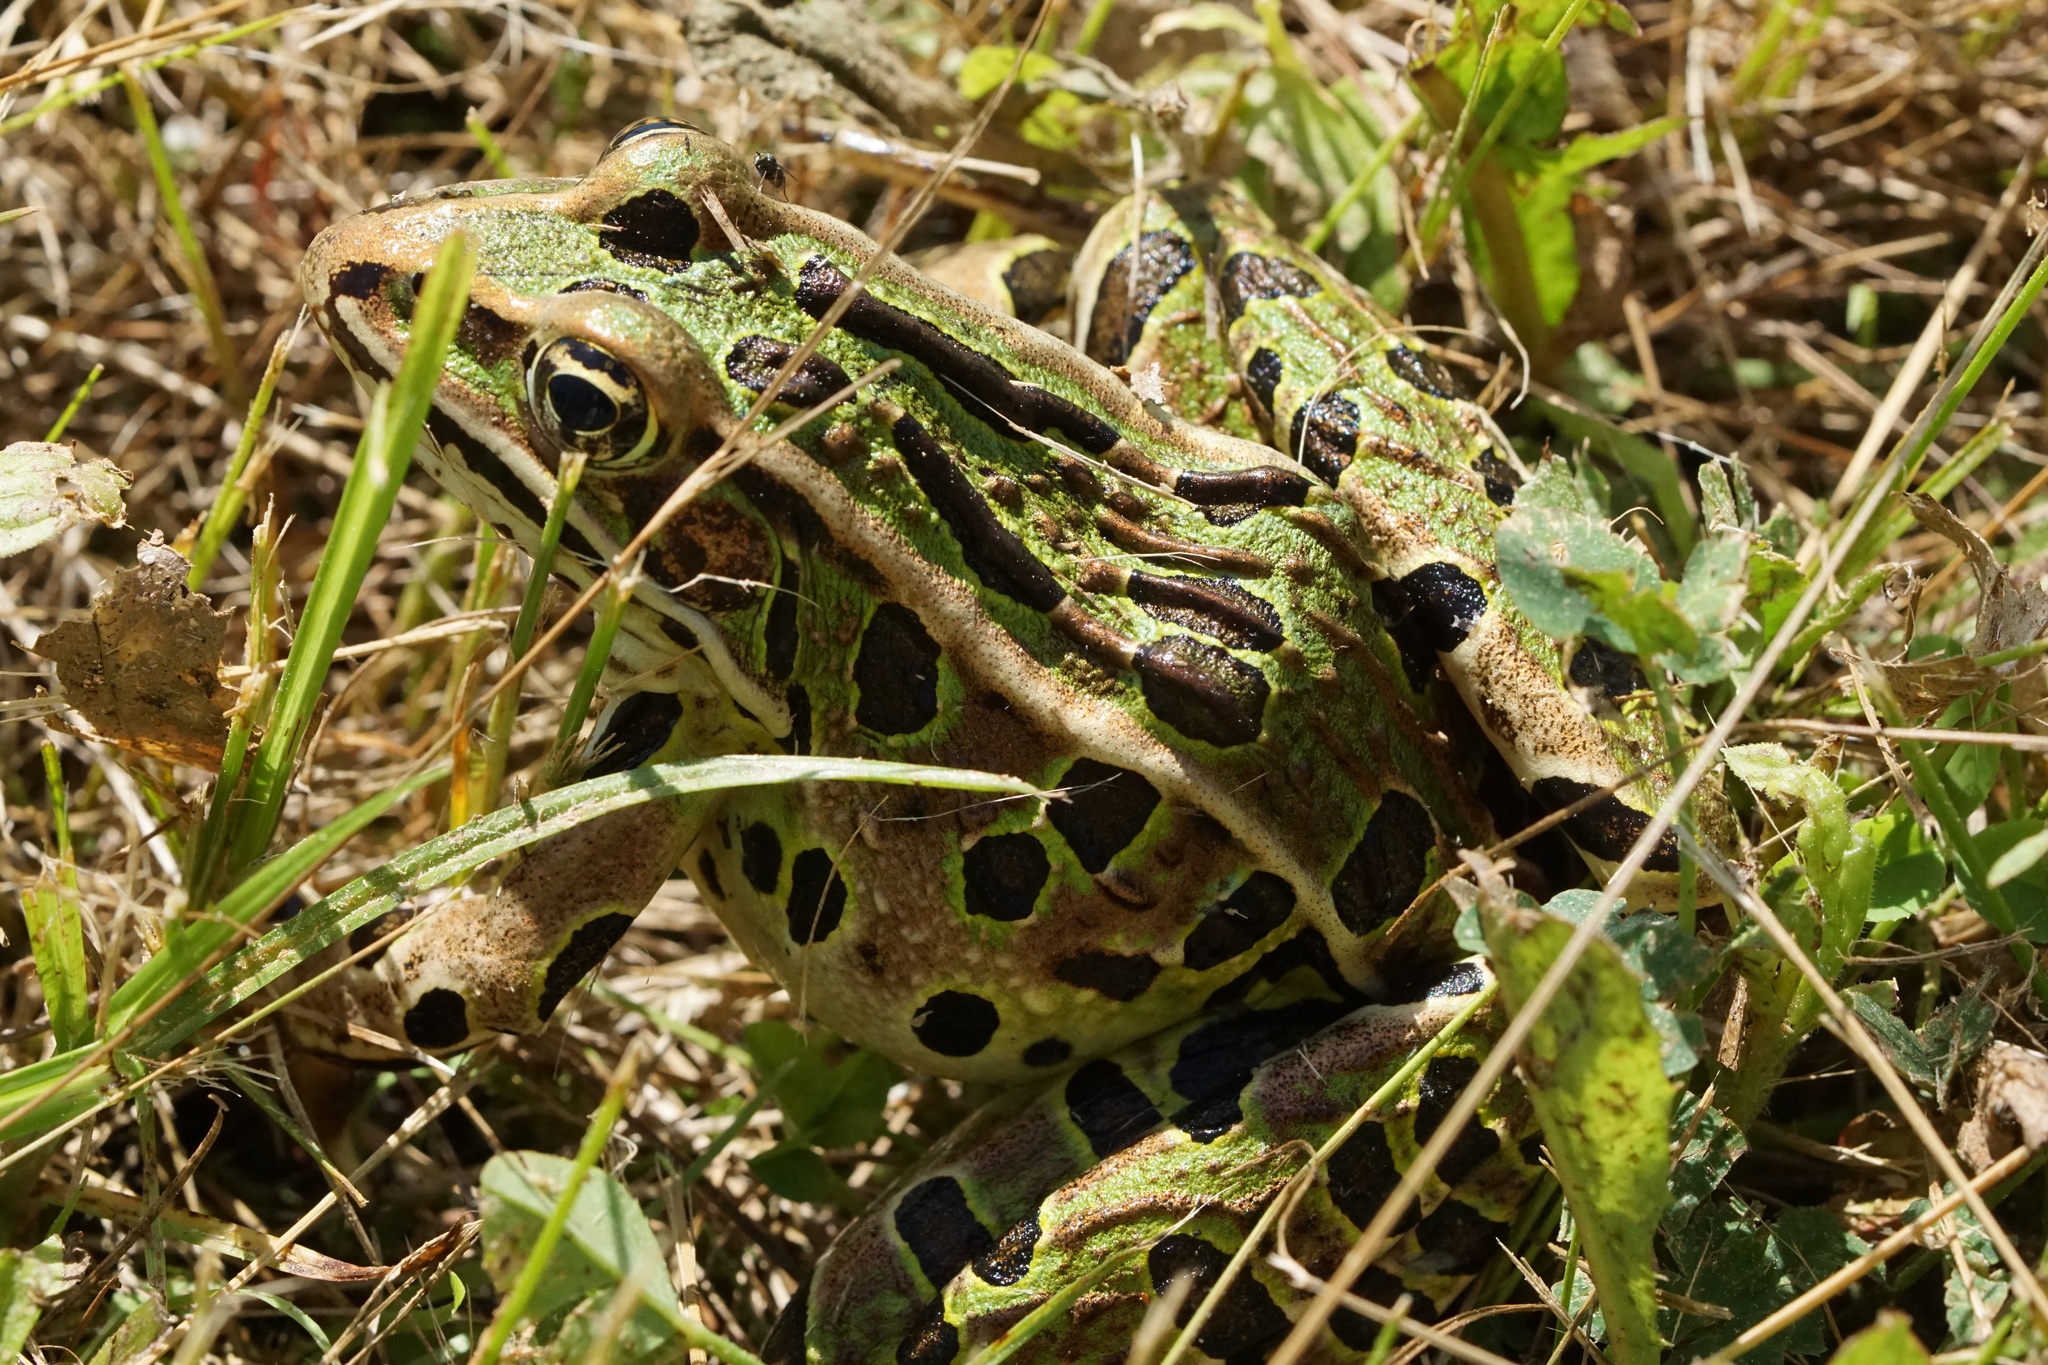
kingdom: Animalia
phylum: Chordata
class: Amphibia
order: Anura
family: Ranidae
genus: Lithobates
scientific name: Lithobates pipiens
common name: Northern leopard frog
